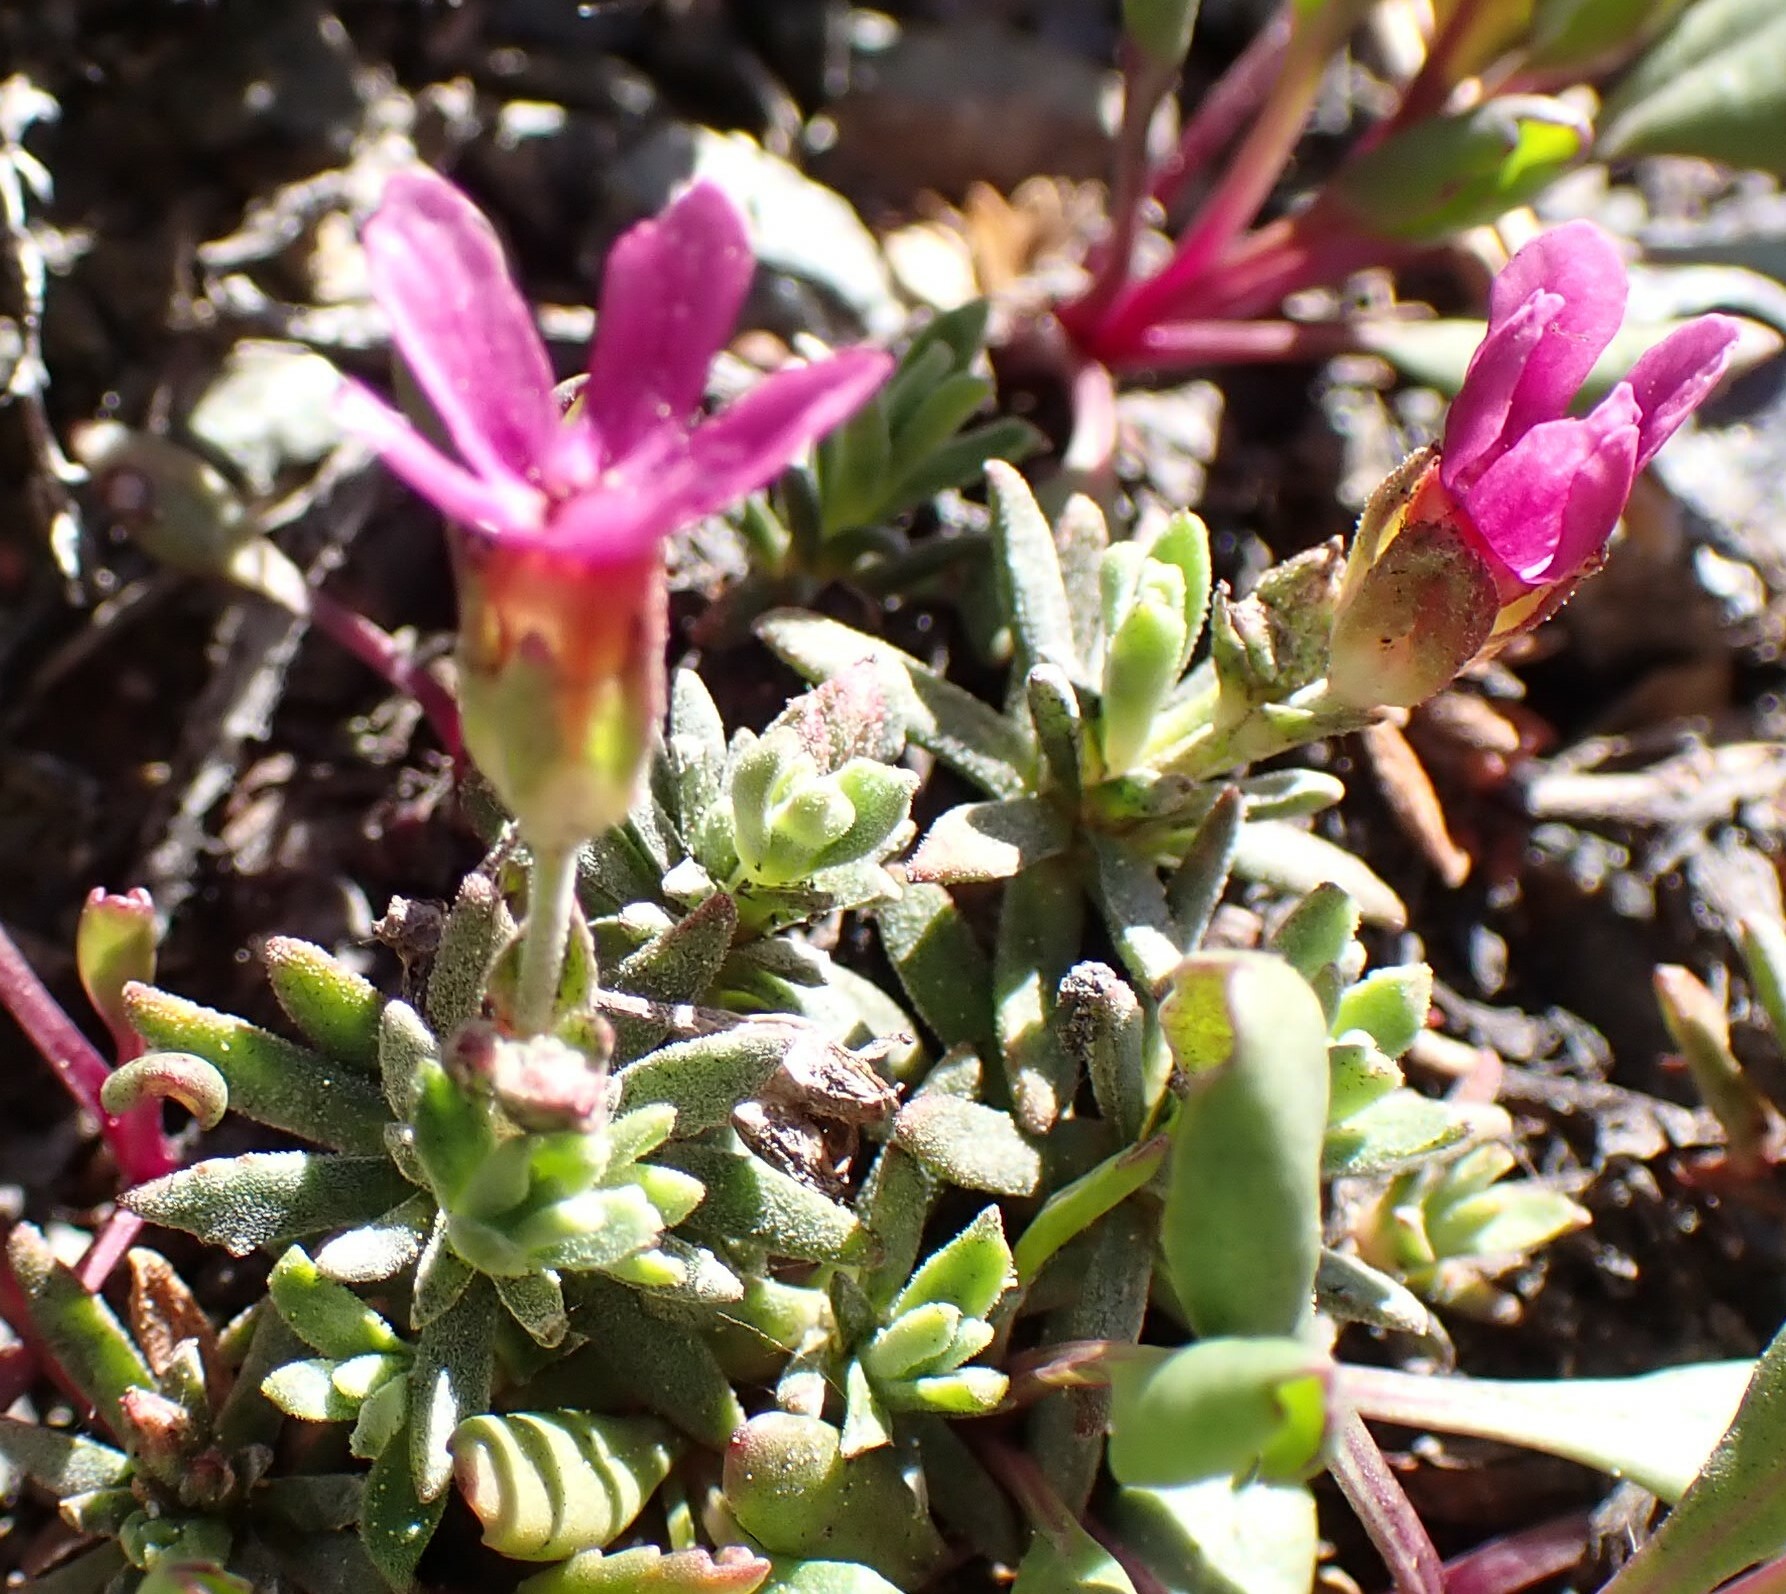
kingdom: Plantae
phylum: Tracheophyta
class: Magnoliopsida
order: Ericales
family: Primulaceae
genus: Androsace
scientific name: Androsace nivalis
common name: Snow dwarf-primrose
